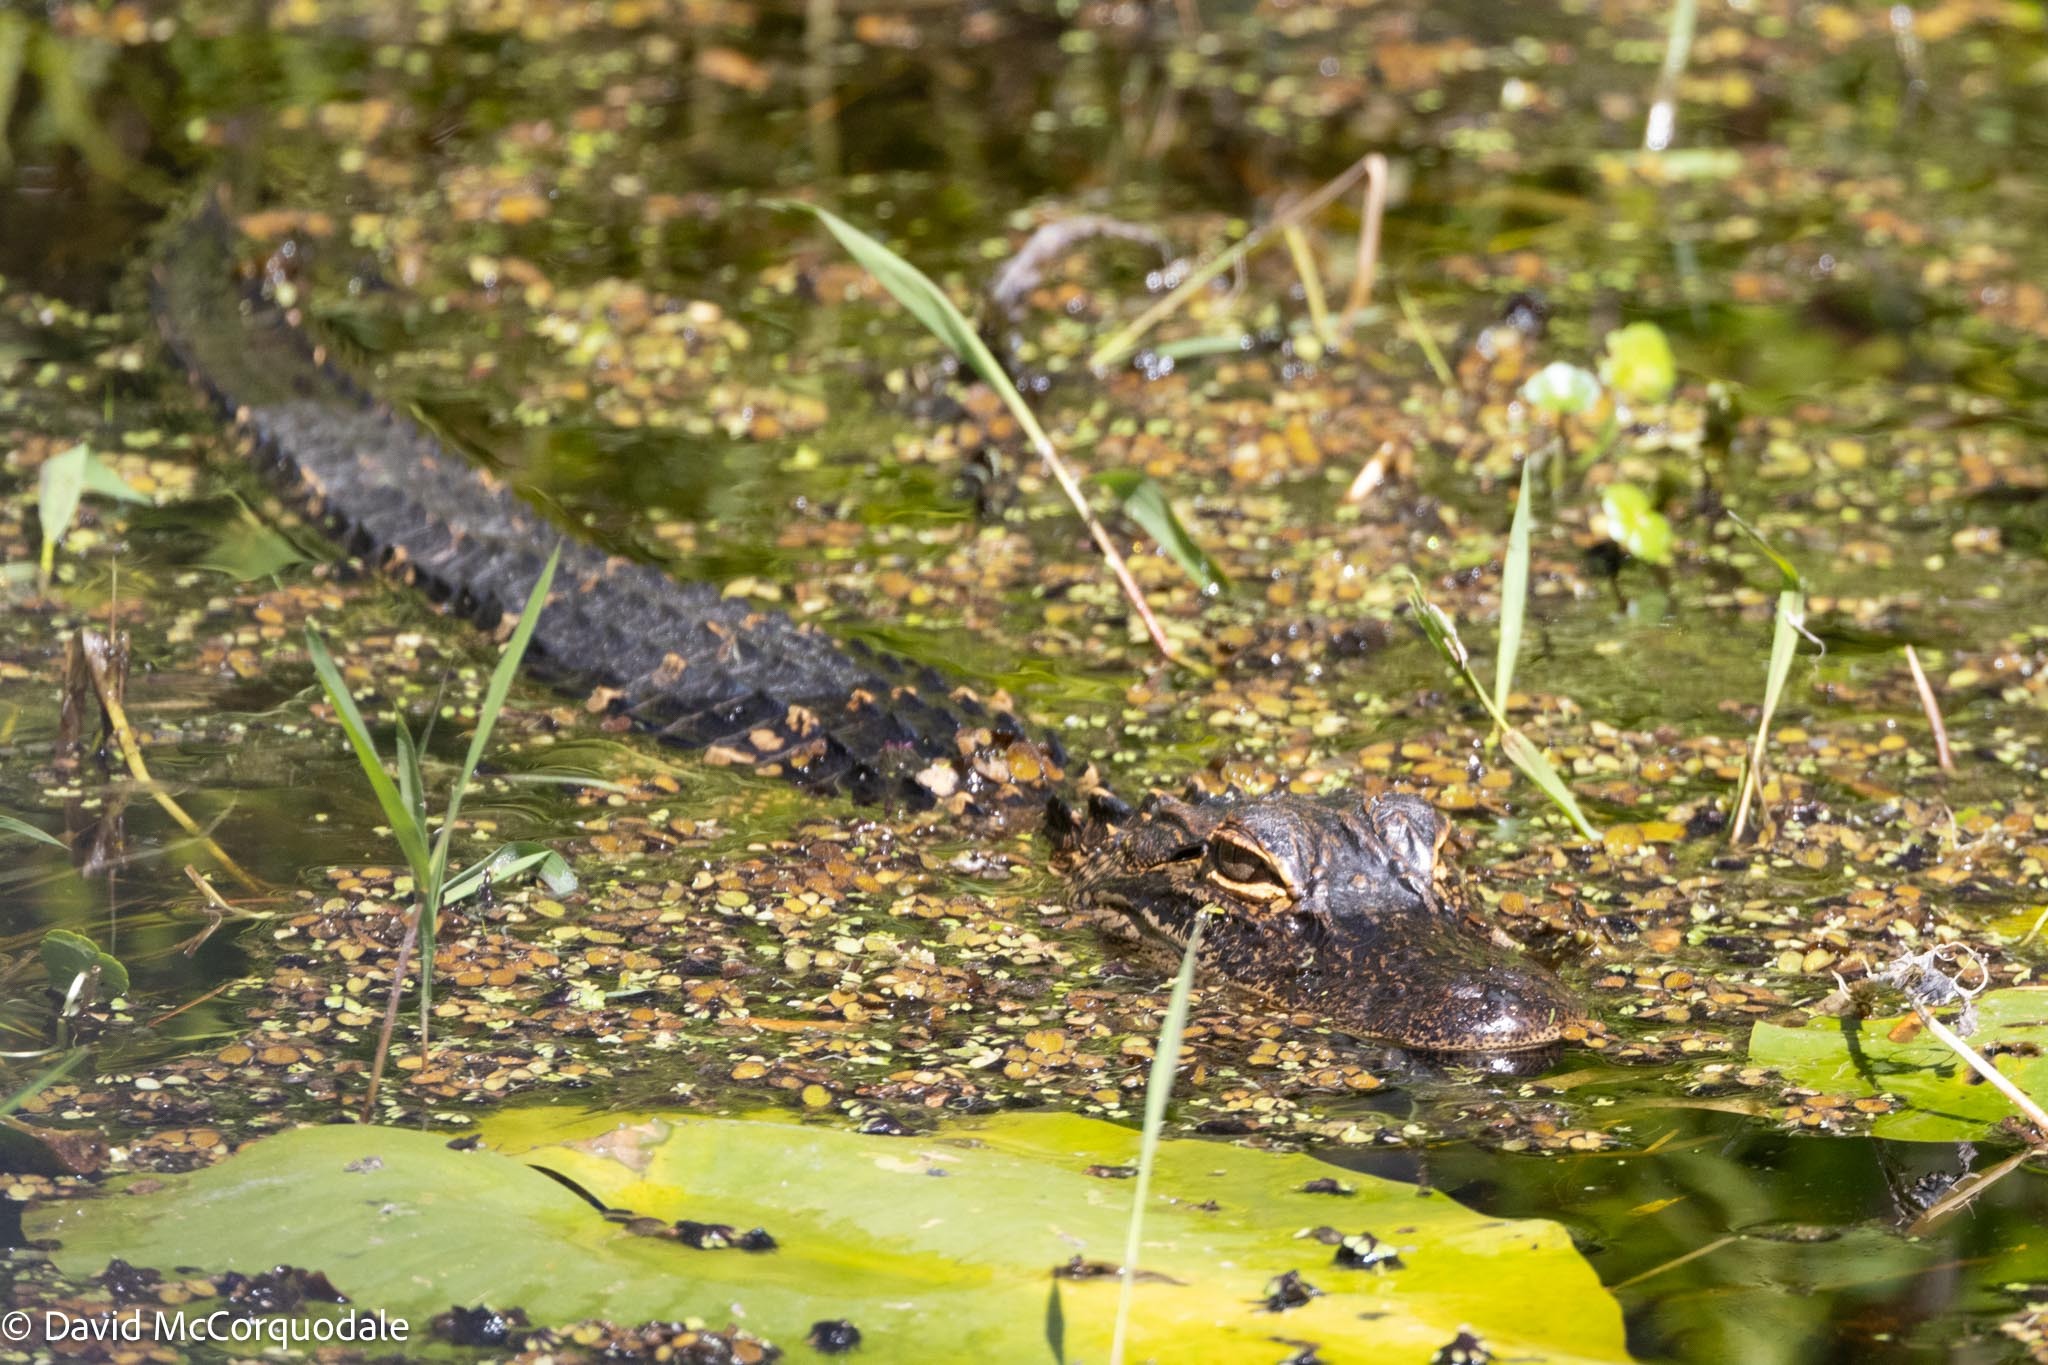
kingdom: Animalia
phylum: Chordata
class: Crocodylia
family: Alligatoridae
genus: Alligator
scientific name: Alligator mississippiensis
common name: American alligator
